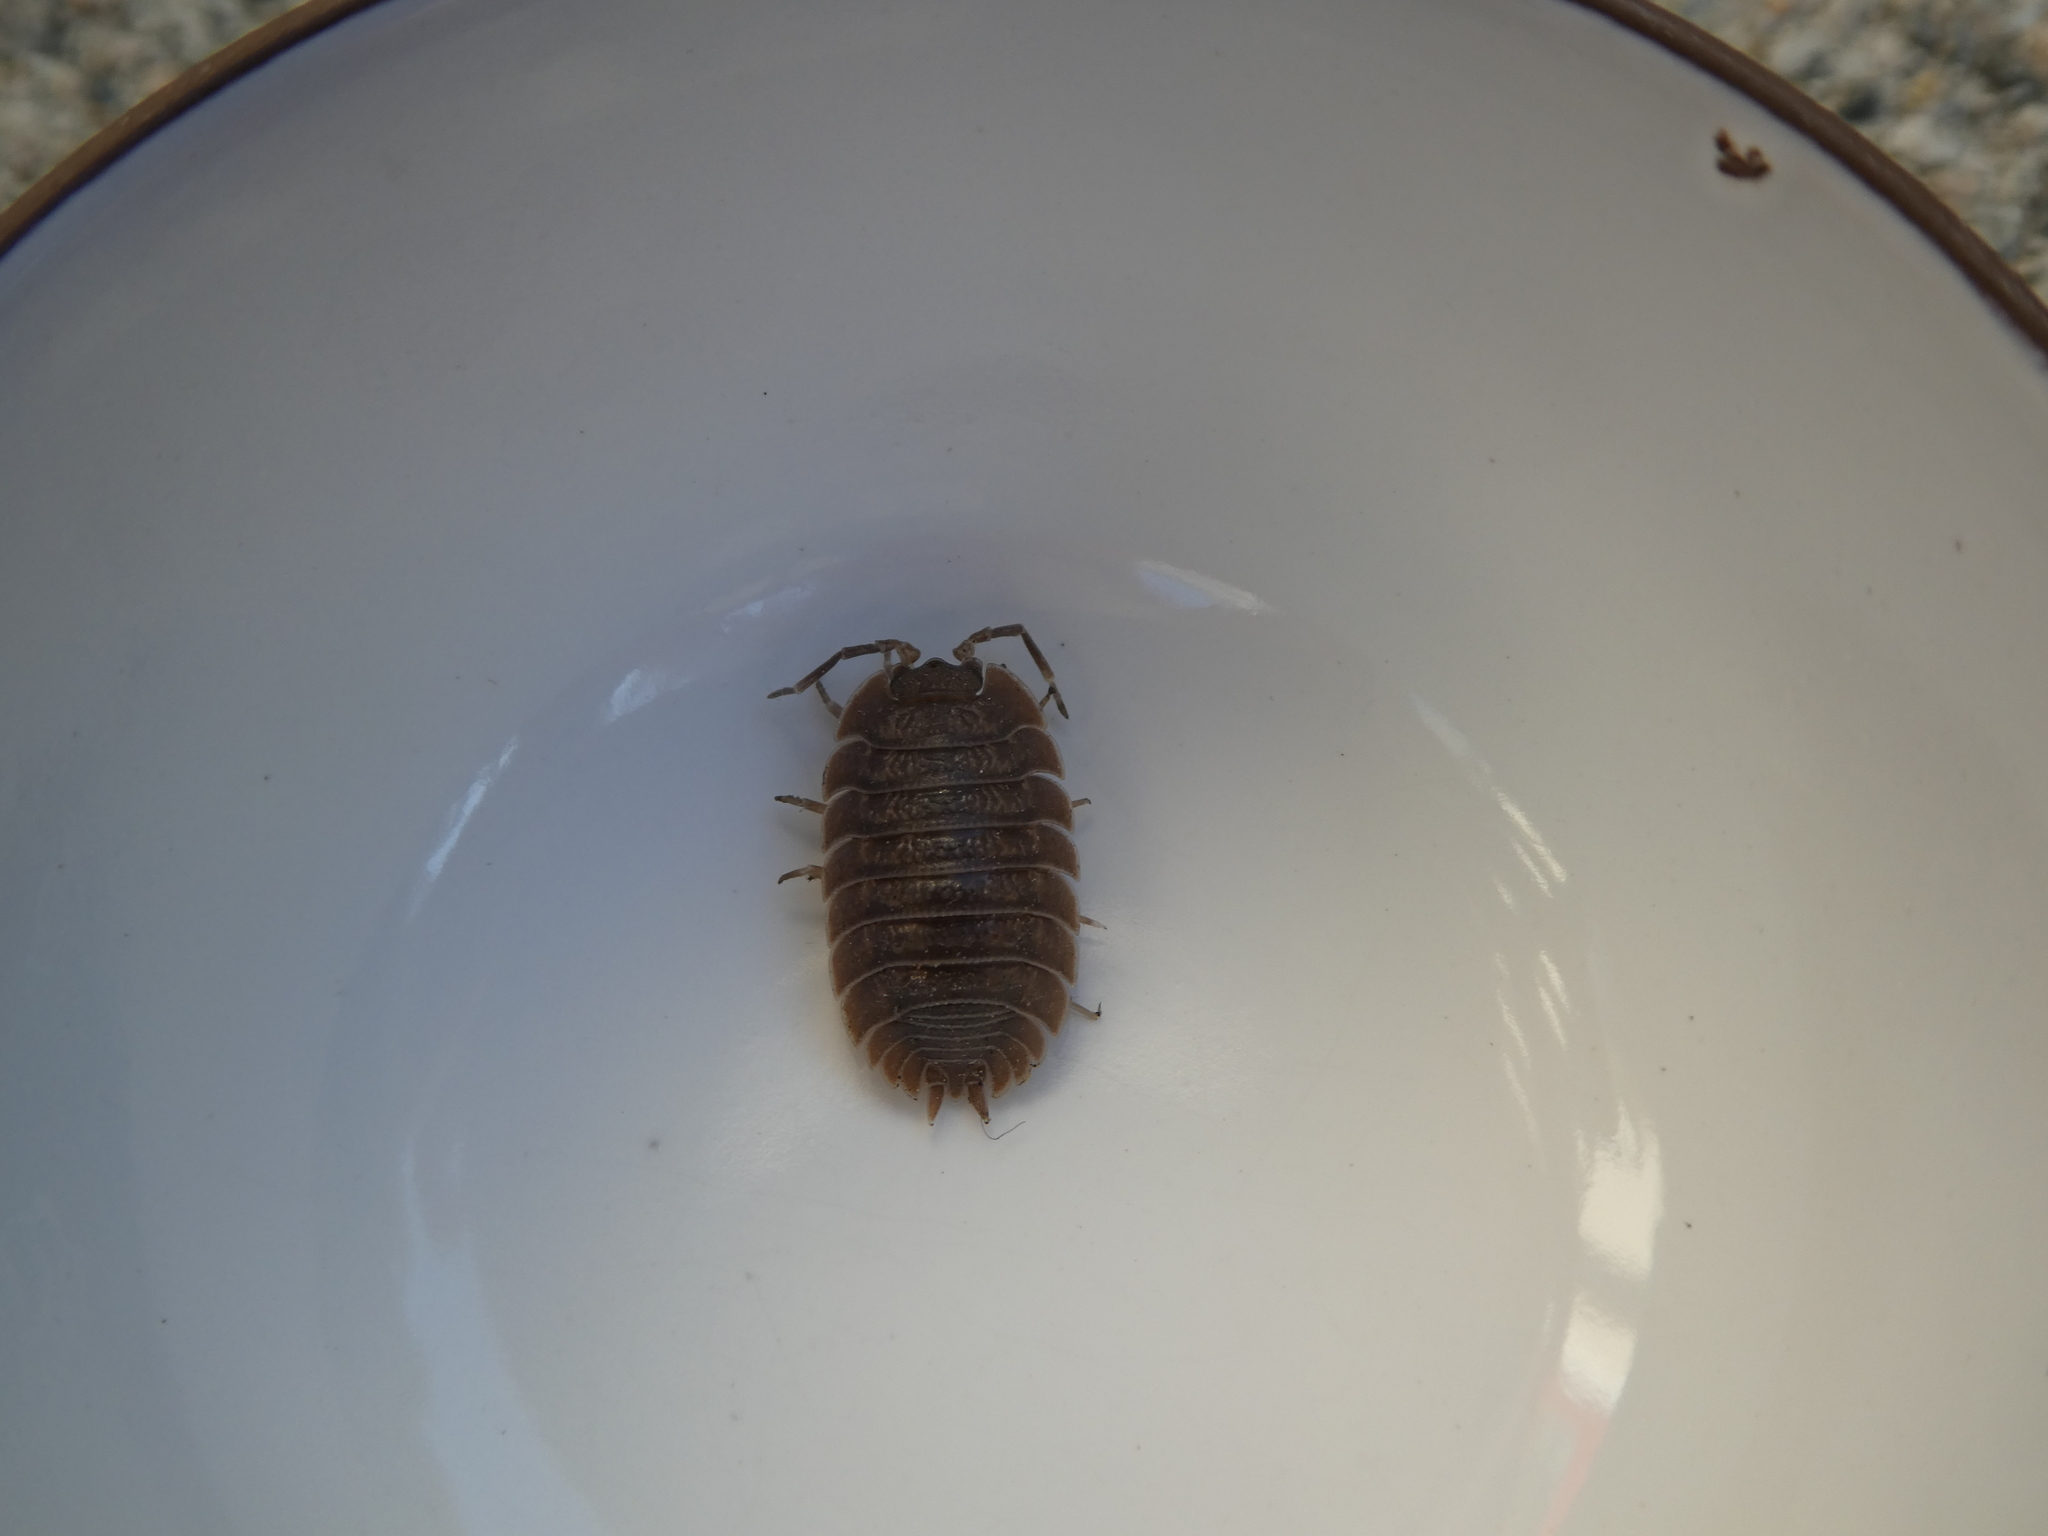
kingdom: Animalia
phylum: Arthropoda
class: Malacostraca
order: Isopoda
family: Porcellionidae
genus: Porcellio
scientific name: Porcellio dilatatus
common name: Isopod
